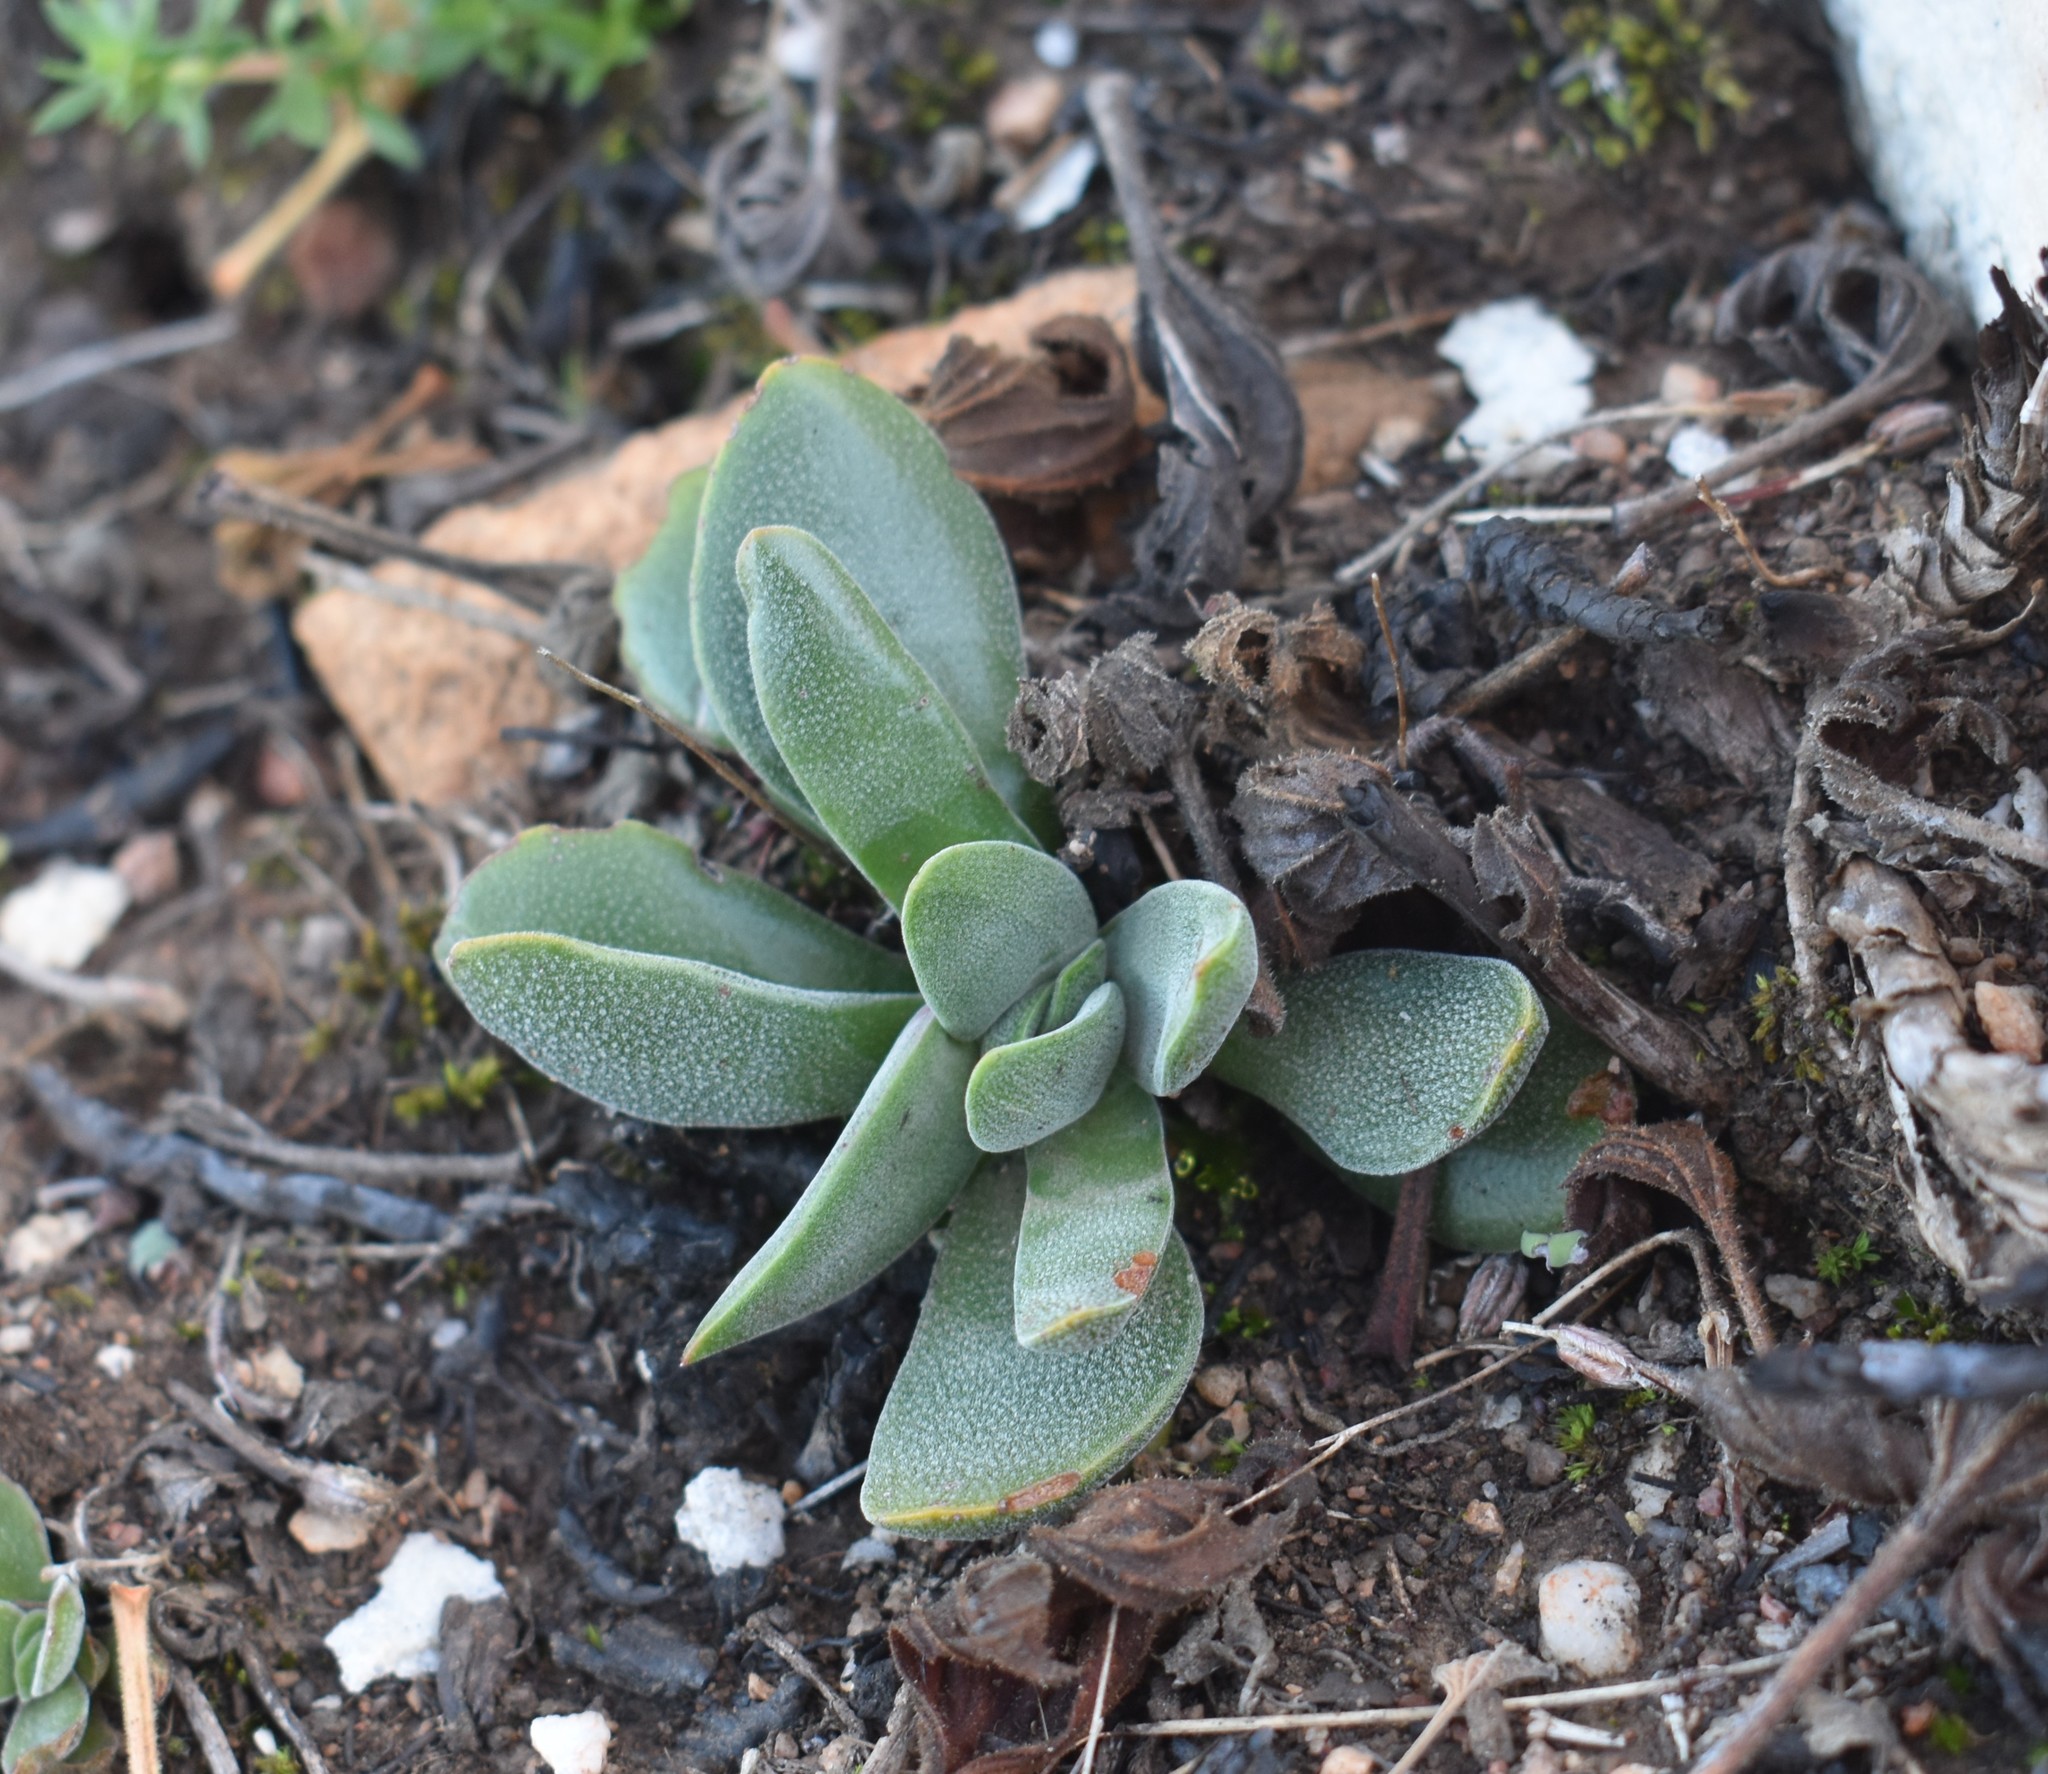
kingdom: Plantae
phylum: Tracheophyta
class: Magnoliopsida
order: Saxifragales
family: Crassulaceae
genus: Crassula
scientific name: Crassula nudicaulis
